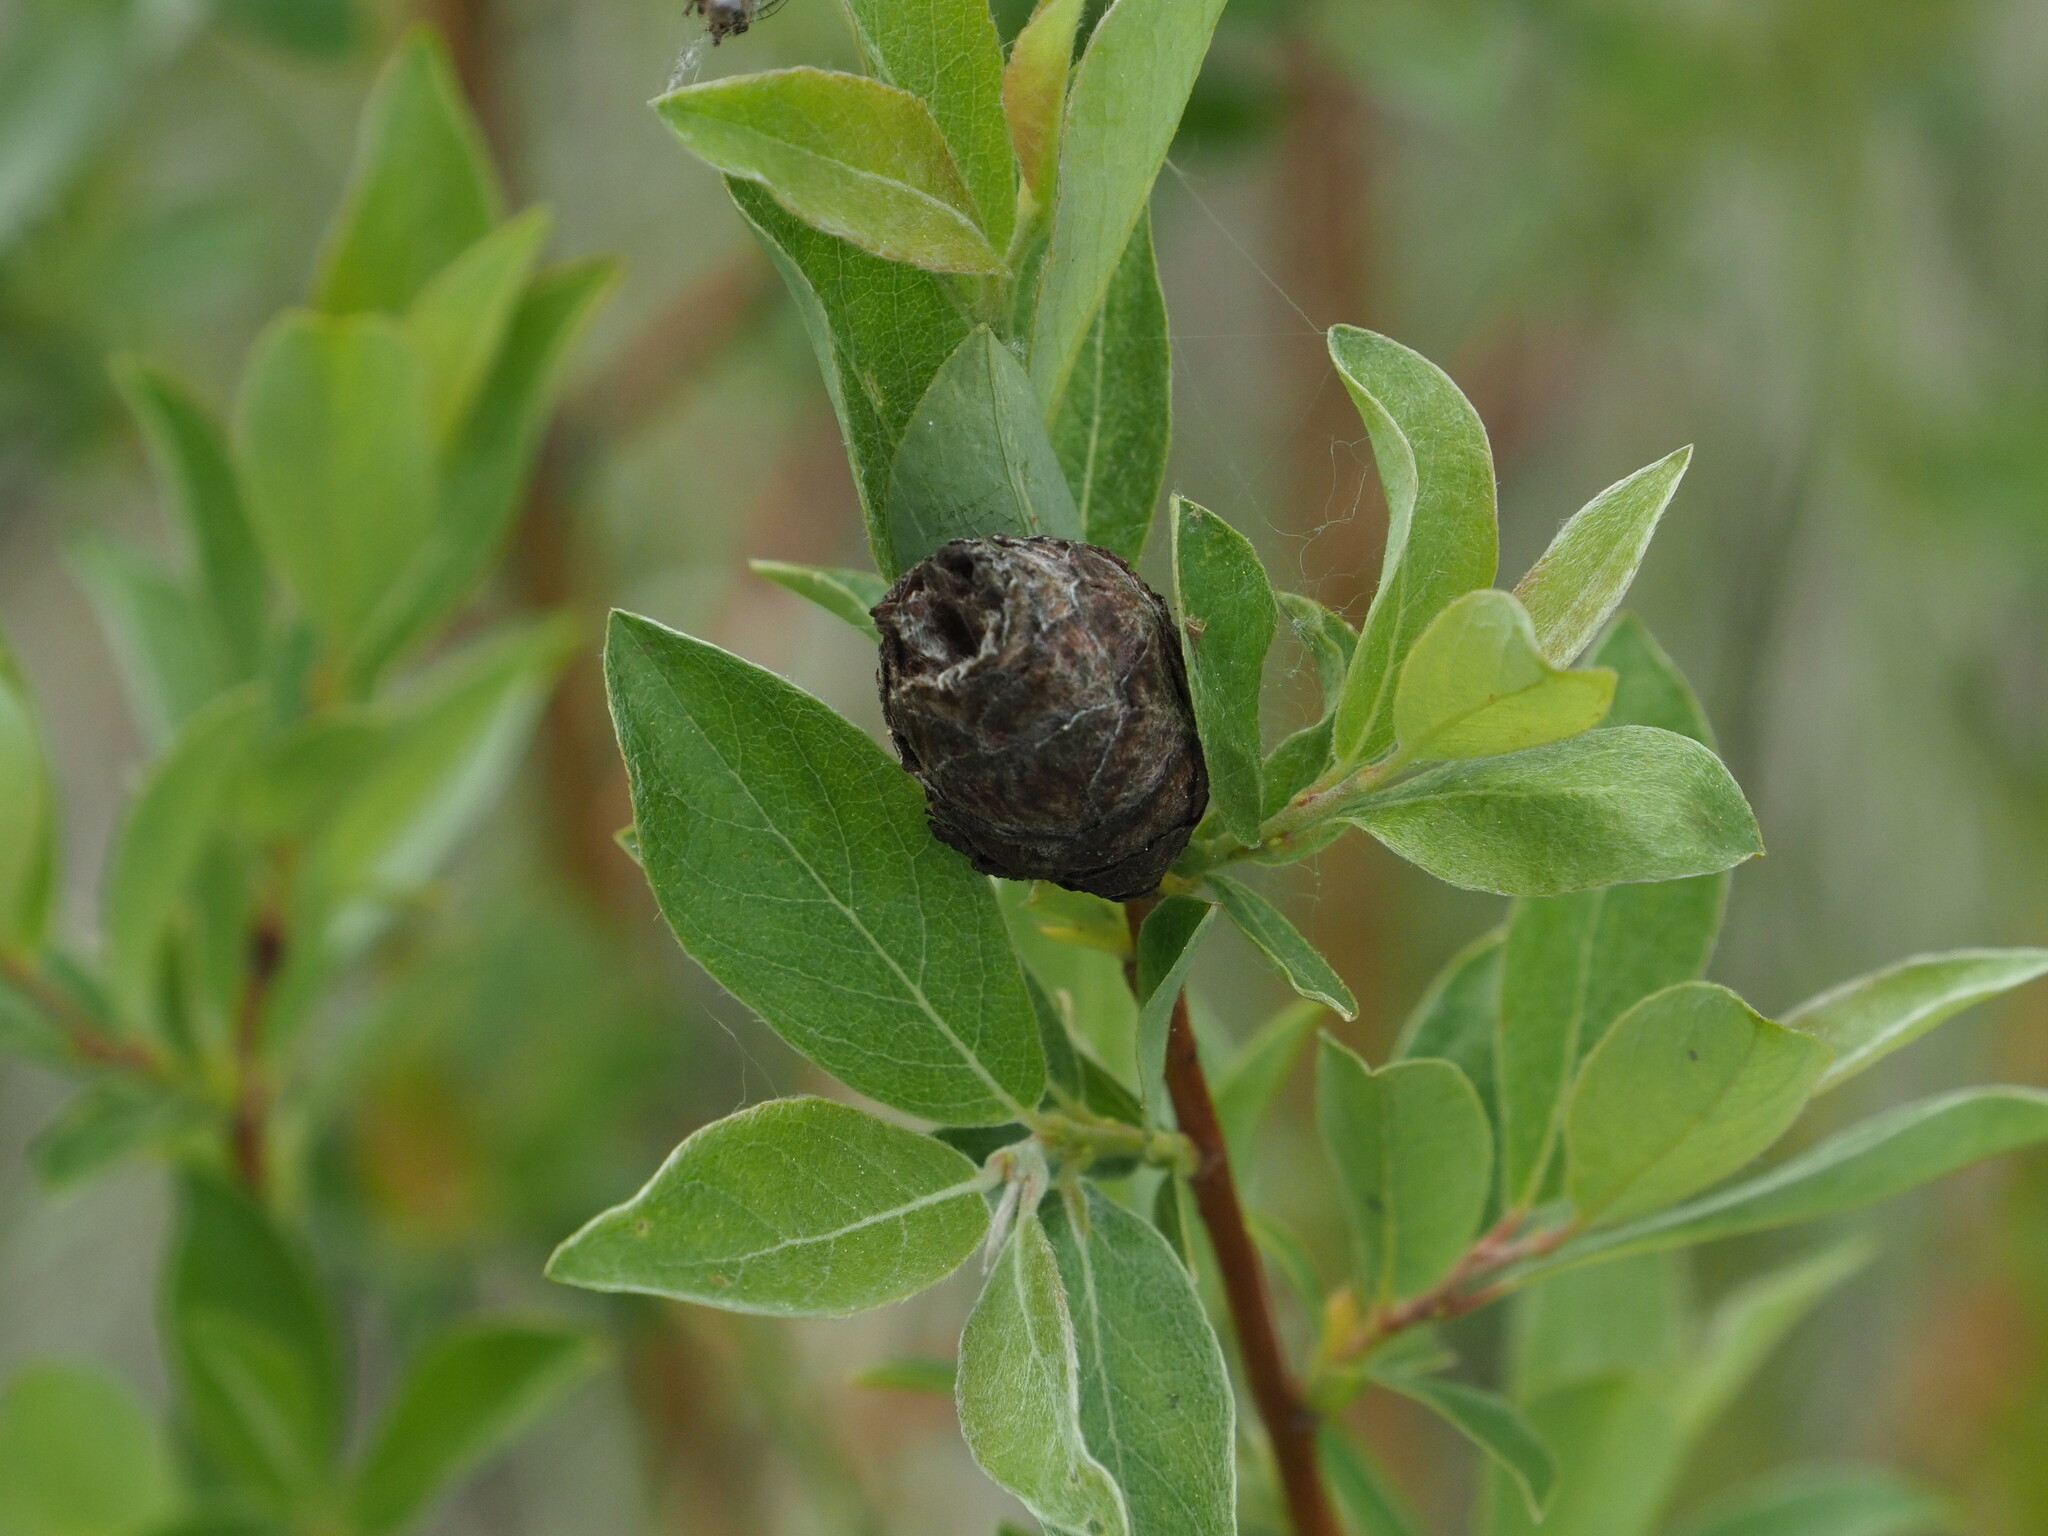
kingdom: Animalia
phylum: Arthropoda
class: Insecta
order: Diptera
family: Cecidomyiidae
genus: Rabdophaga
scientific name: Rabdophaga strobiloides
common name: Willow pinecone gall midge
